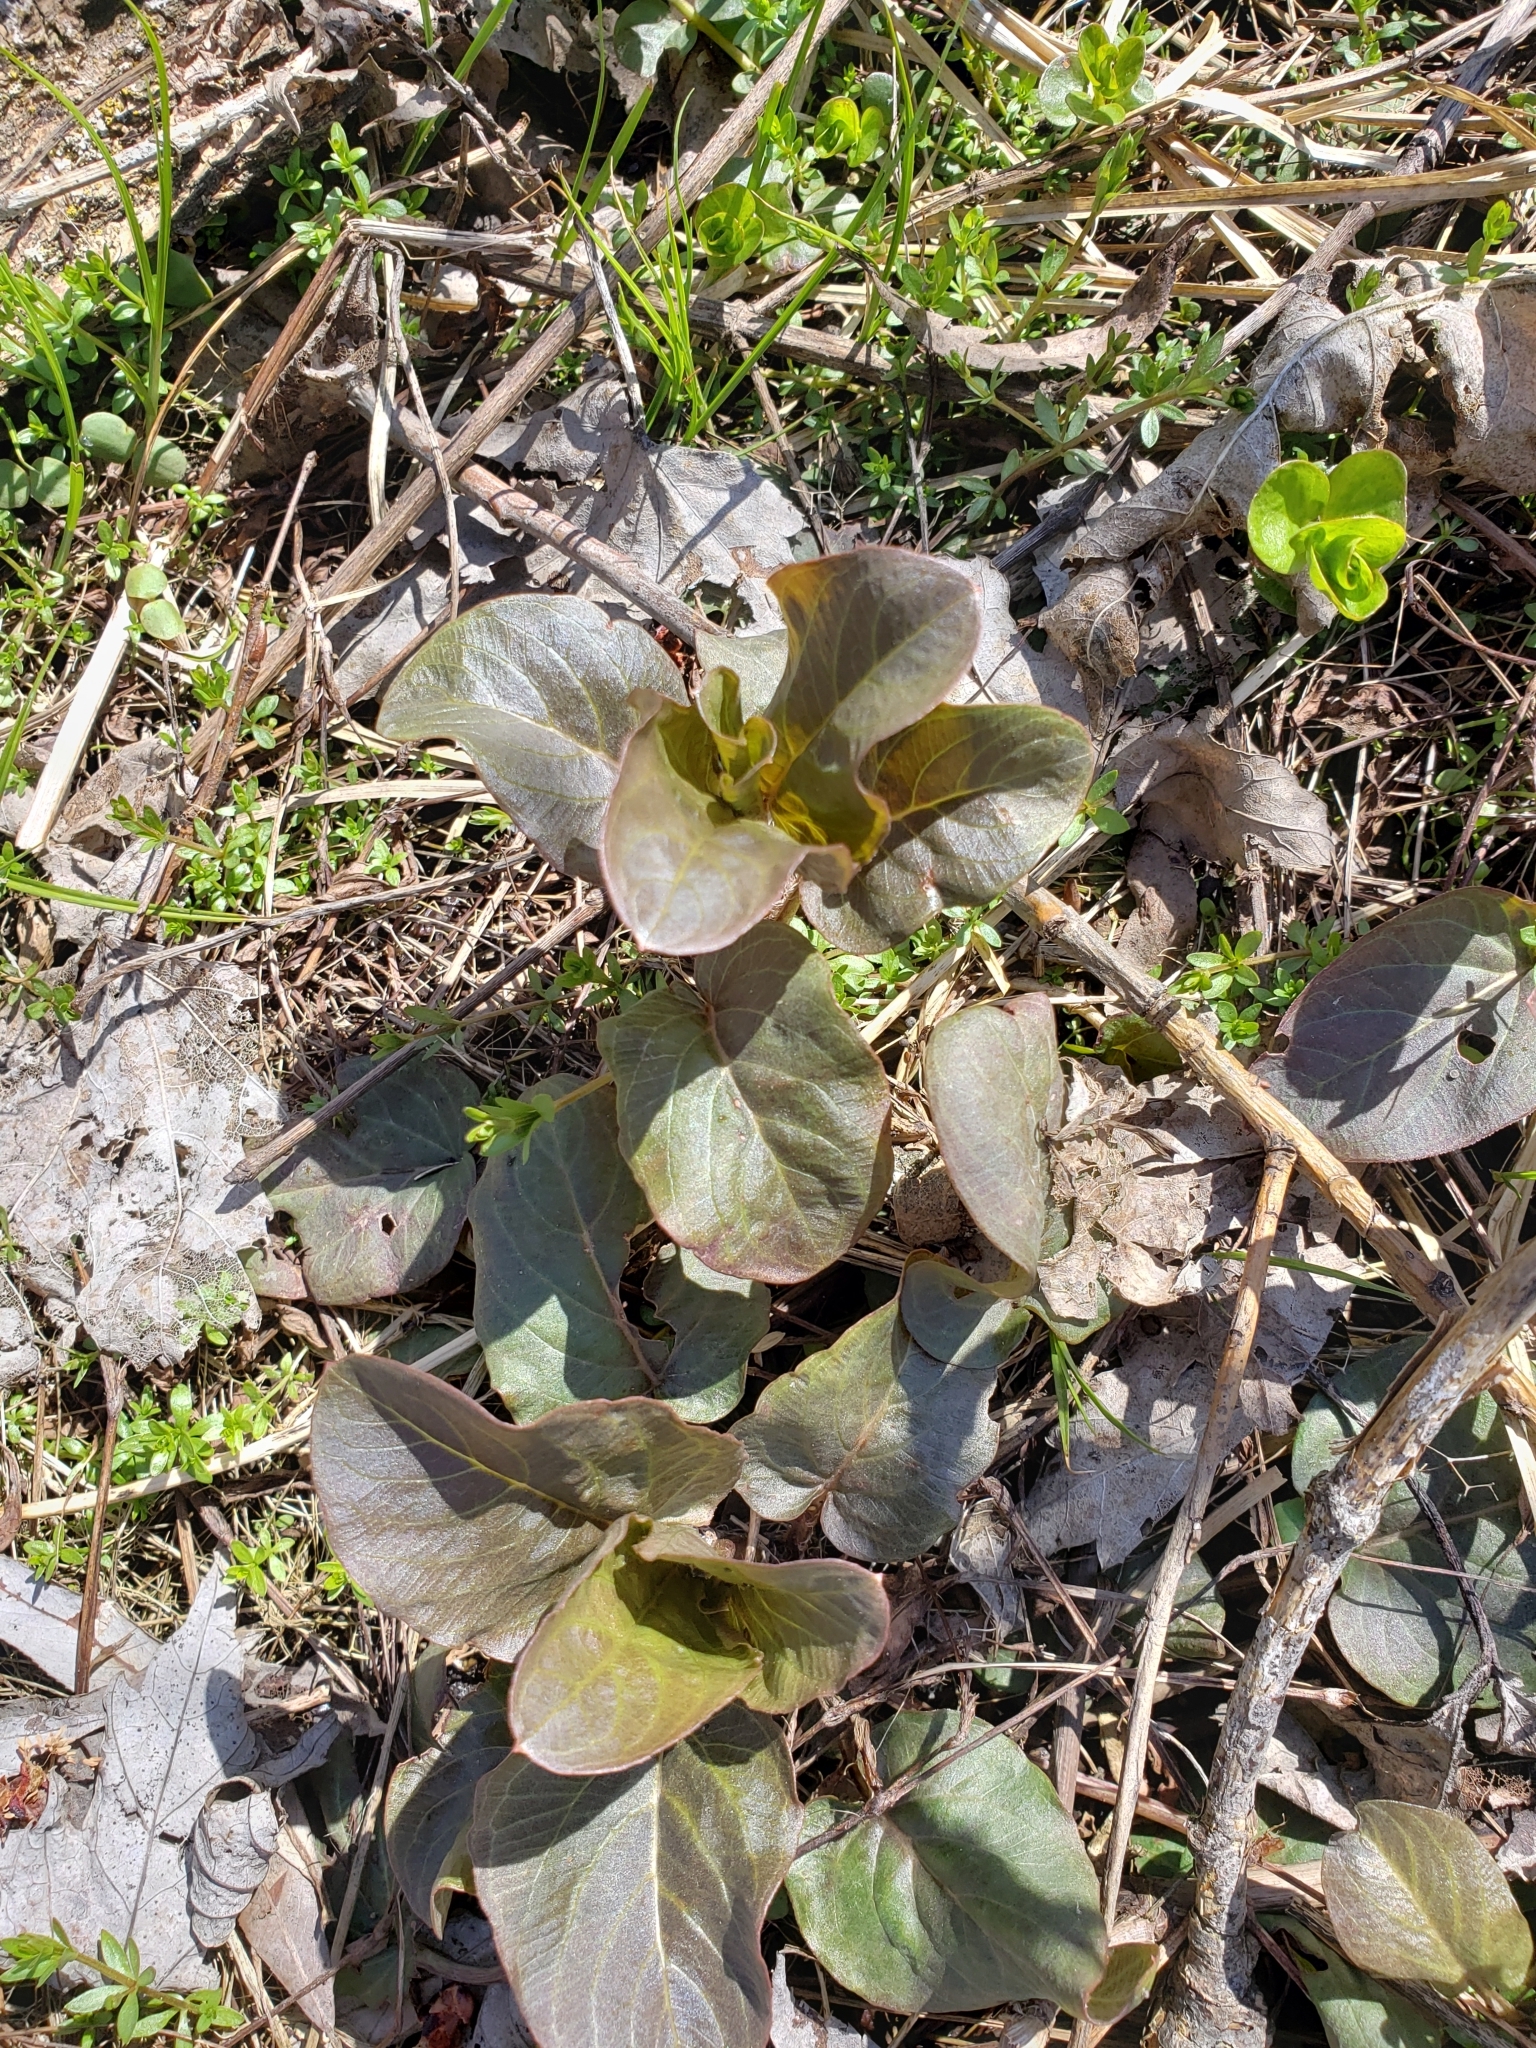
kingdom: Plantae
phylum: Tracheophyta
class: Magnoliopsida
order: Ericales
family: Primulaceae
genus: Lysimachia
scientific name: Lysimachia ciliata
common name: Fringed loosestrife
